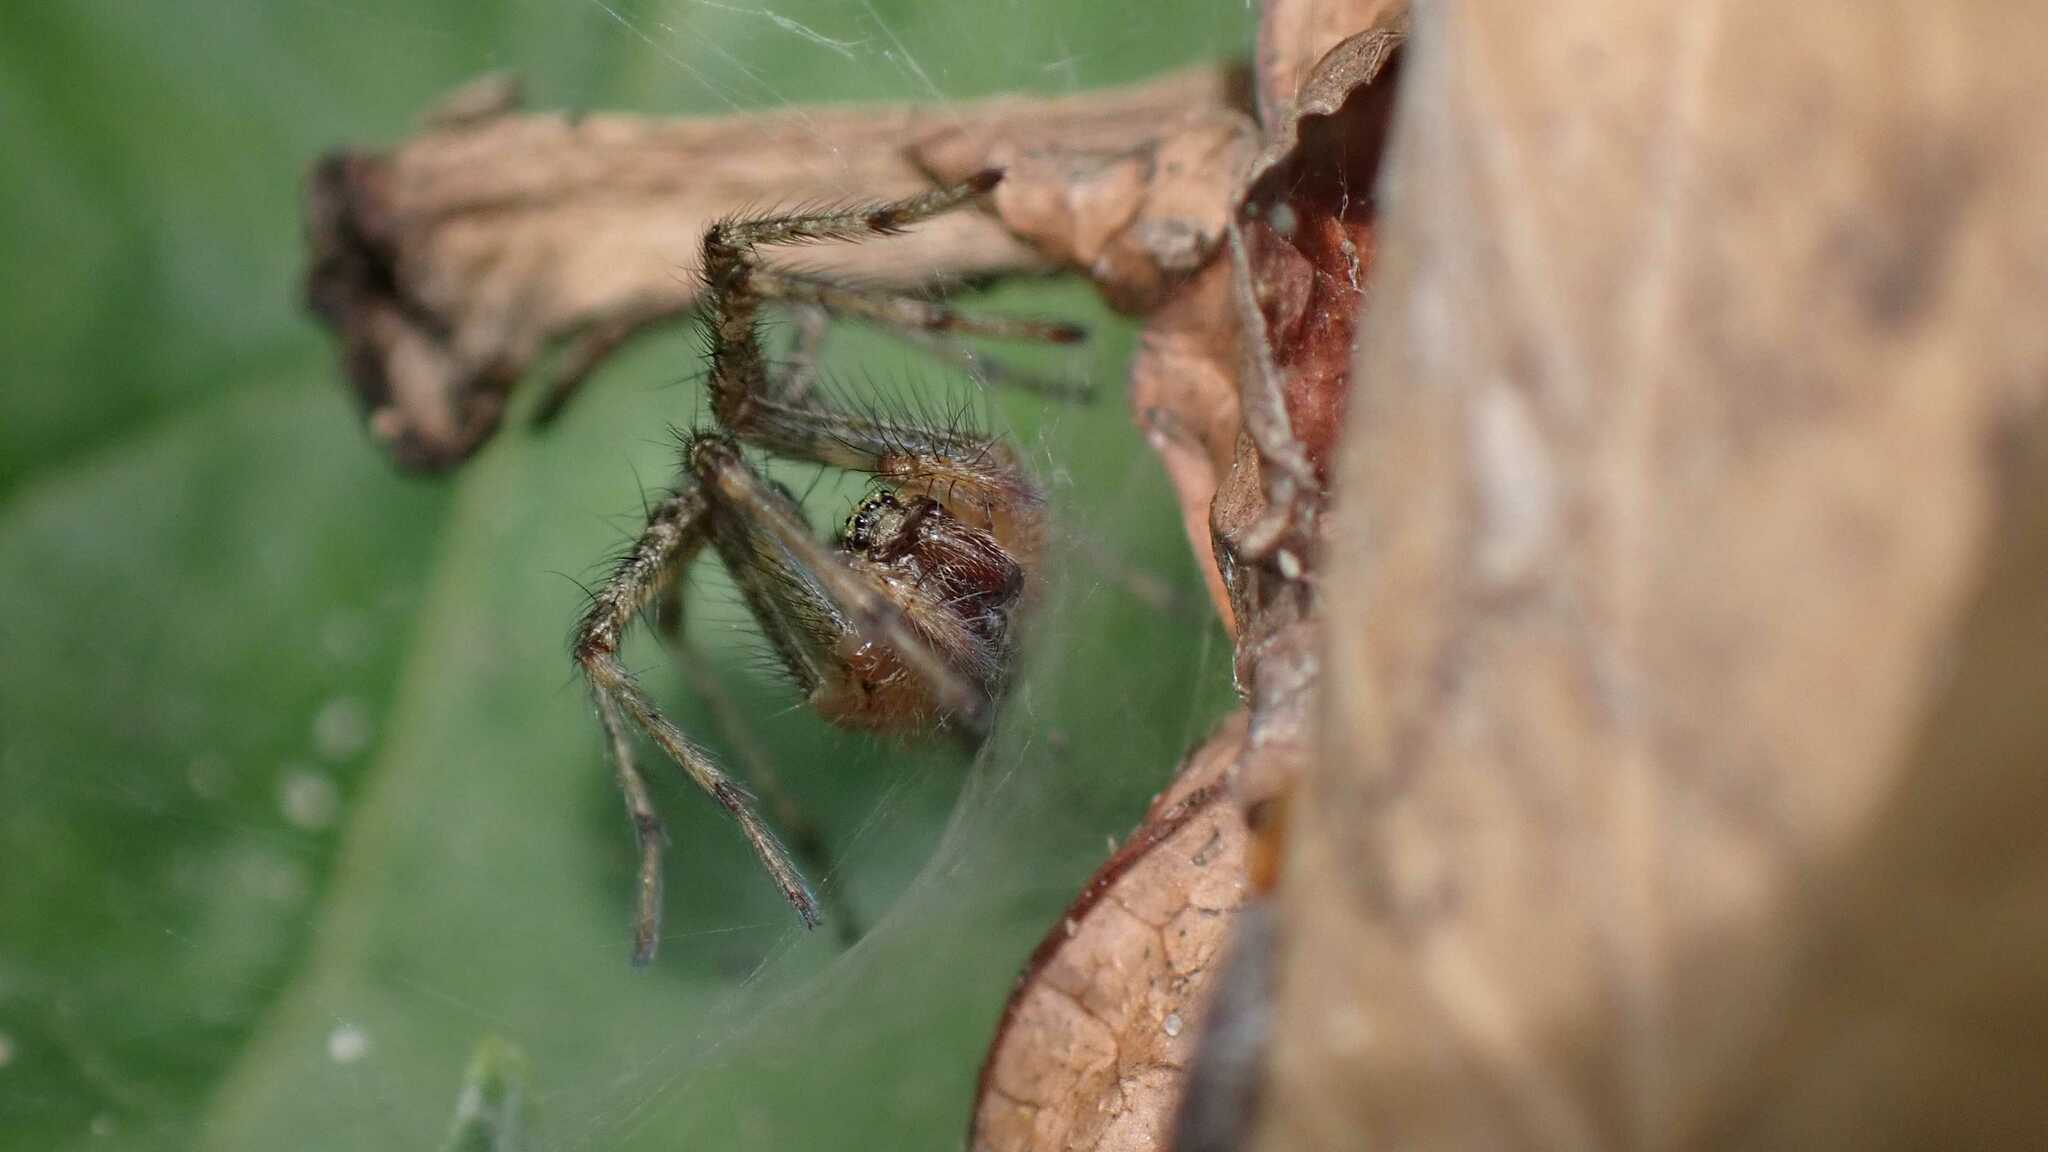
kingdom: Animalia
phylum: Arthropoda
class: Arachnida
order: Araneae
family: Agelenidae
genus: Allagelena
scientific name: Allagelena gracilens
